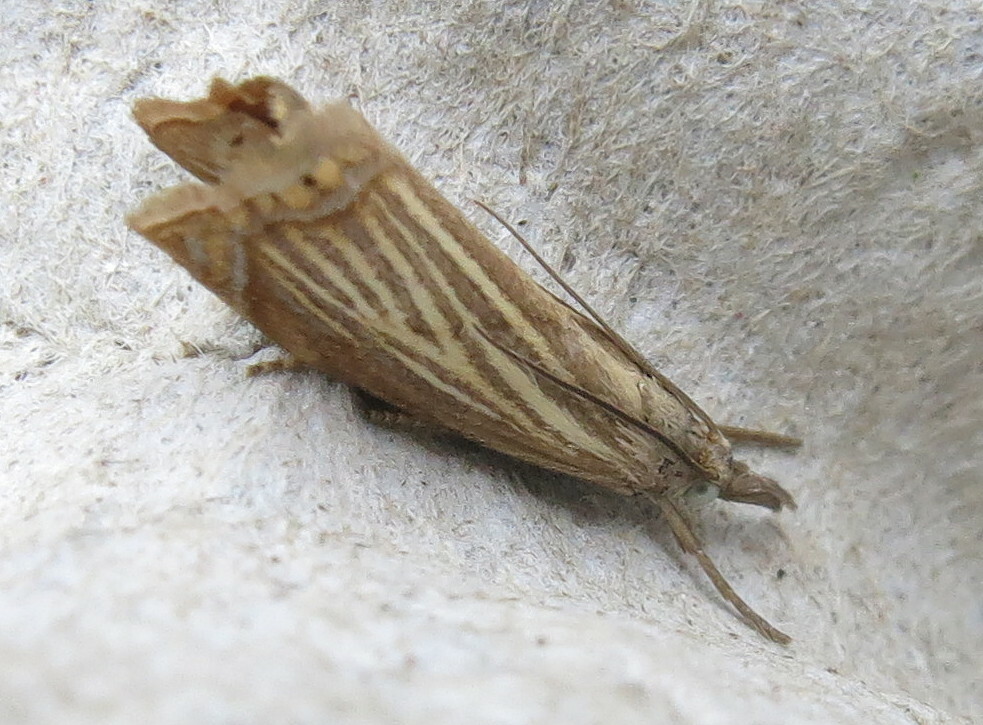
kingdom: Animalia
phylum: Arthropoda
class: Insecta
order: Lepidoptera
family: Crambidae
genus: Chrysoteuchia
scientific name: Chrysoteuchia culmella
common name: Garden grass-veneer
